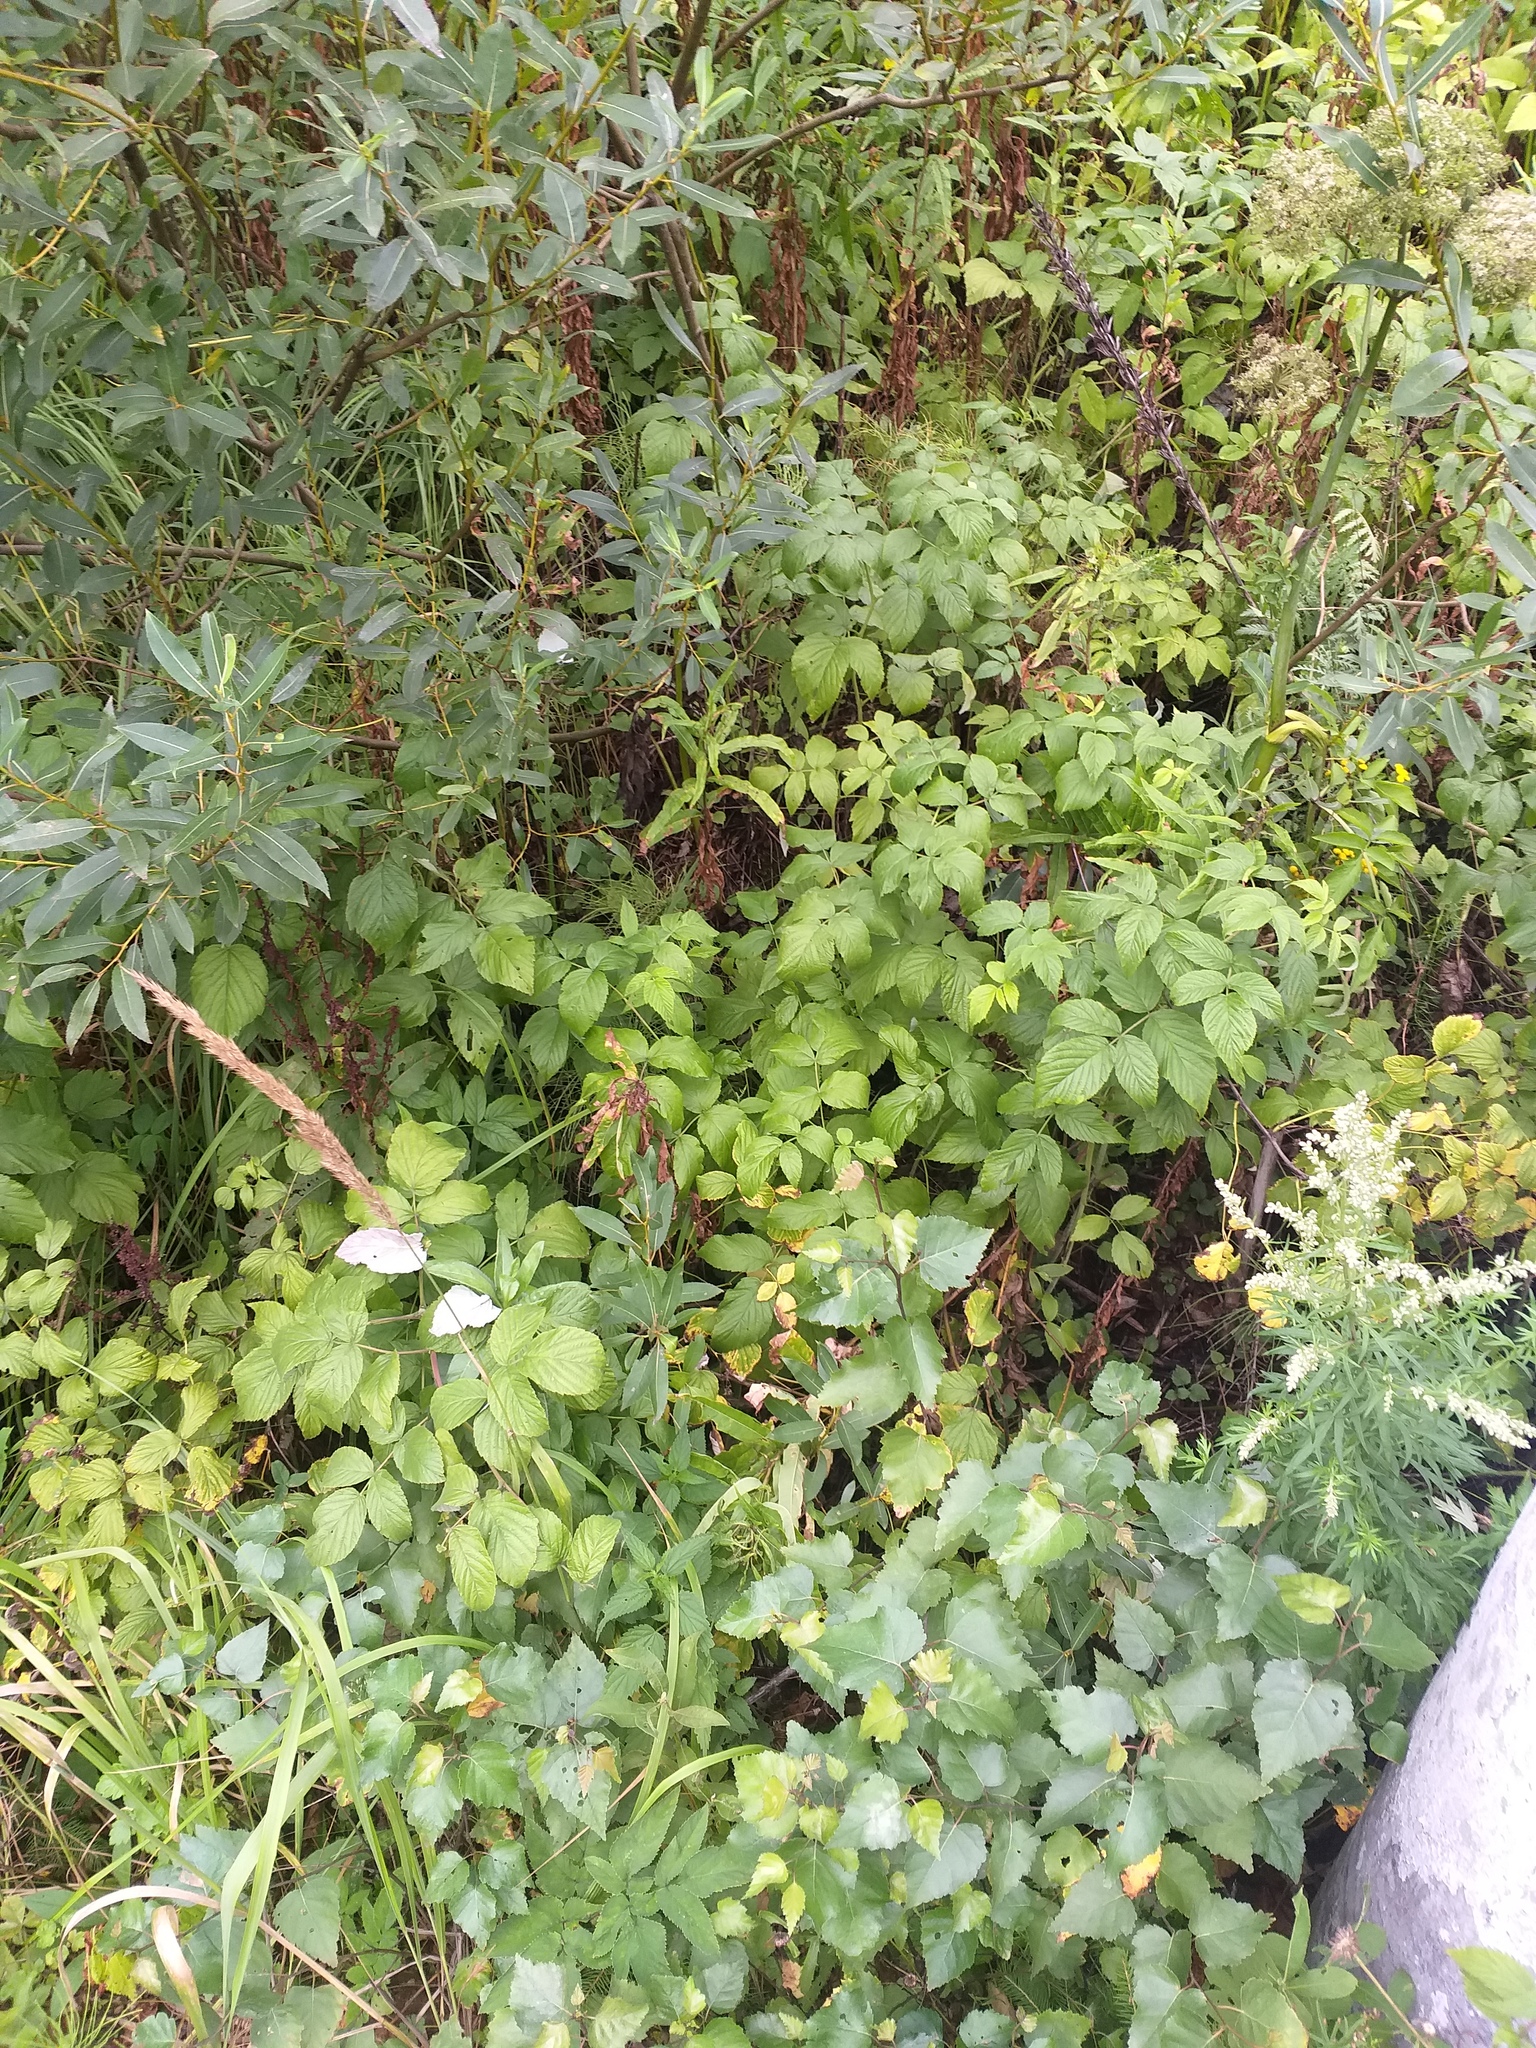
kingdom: Plantae
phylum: Tracheophyta
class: Magnoliopsida
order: Rosales
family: Rosaceae
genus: Rubus
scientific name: Rubus idaeus
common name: Raspberry
